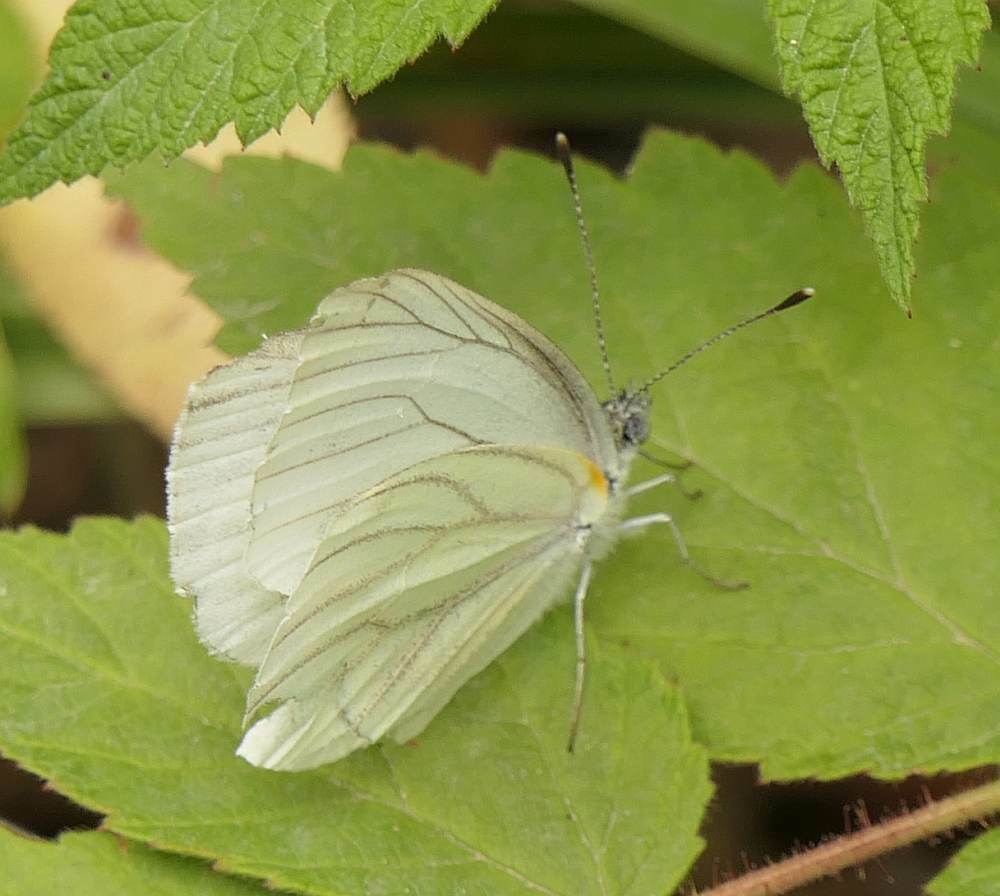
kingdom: Animalia
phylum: Arthropoda
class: Insecta
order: Lepidoptera
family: Pieridae
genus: Pieris
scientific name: Pieris oleracea
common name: Mustard white
